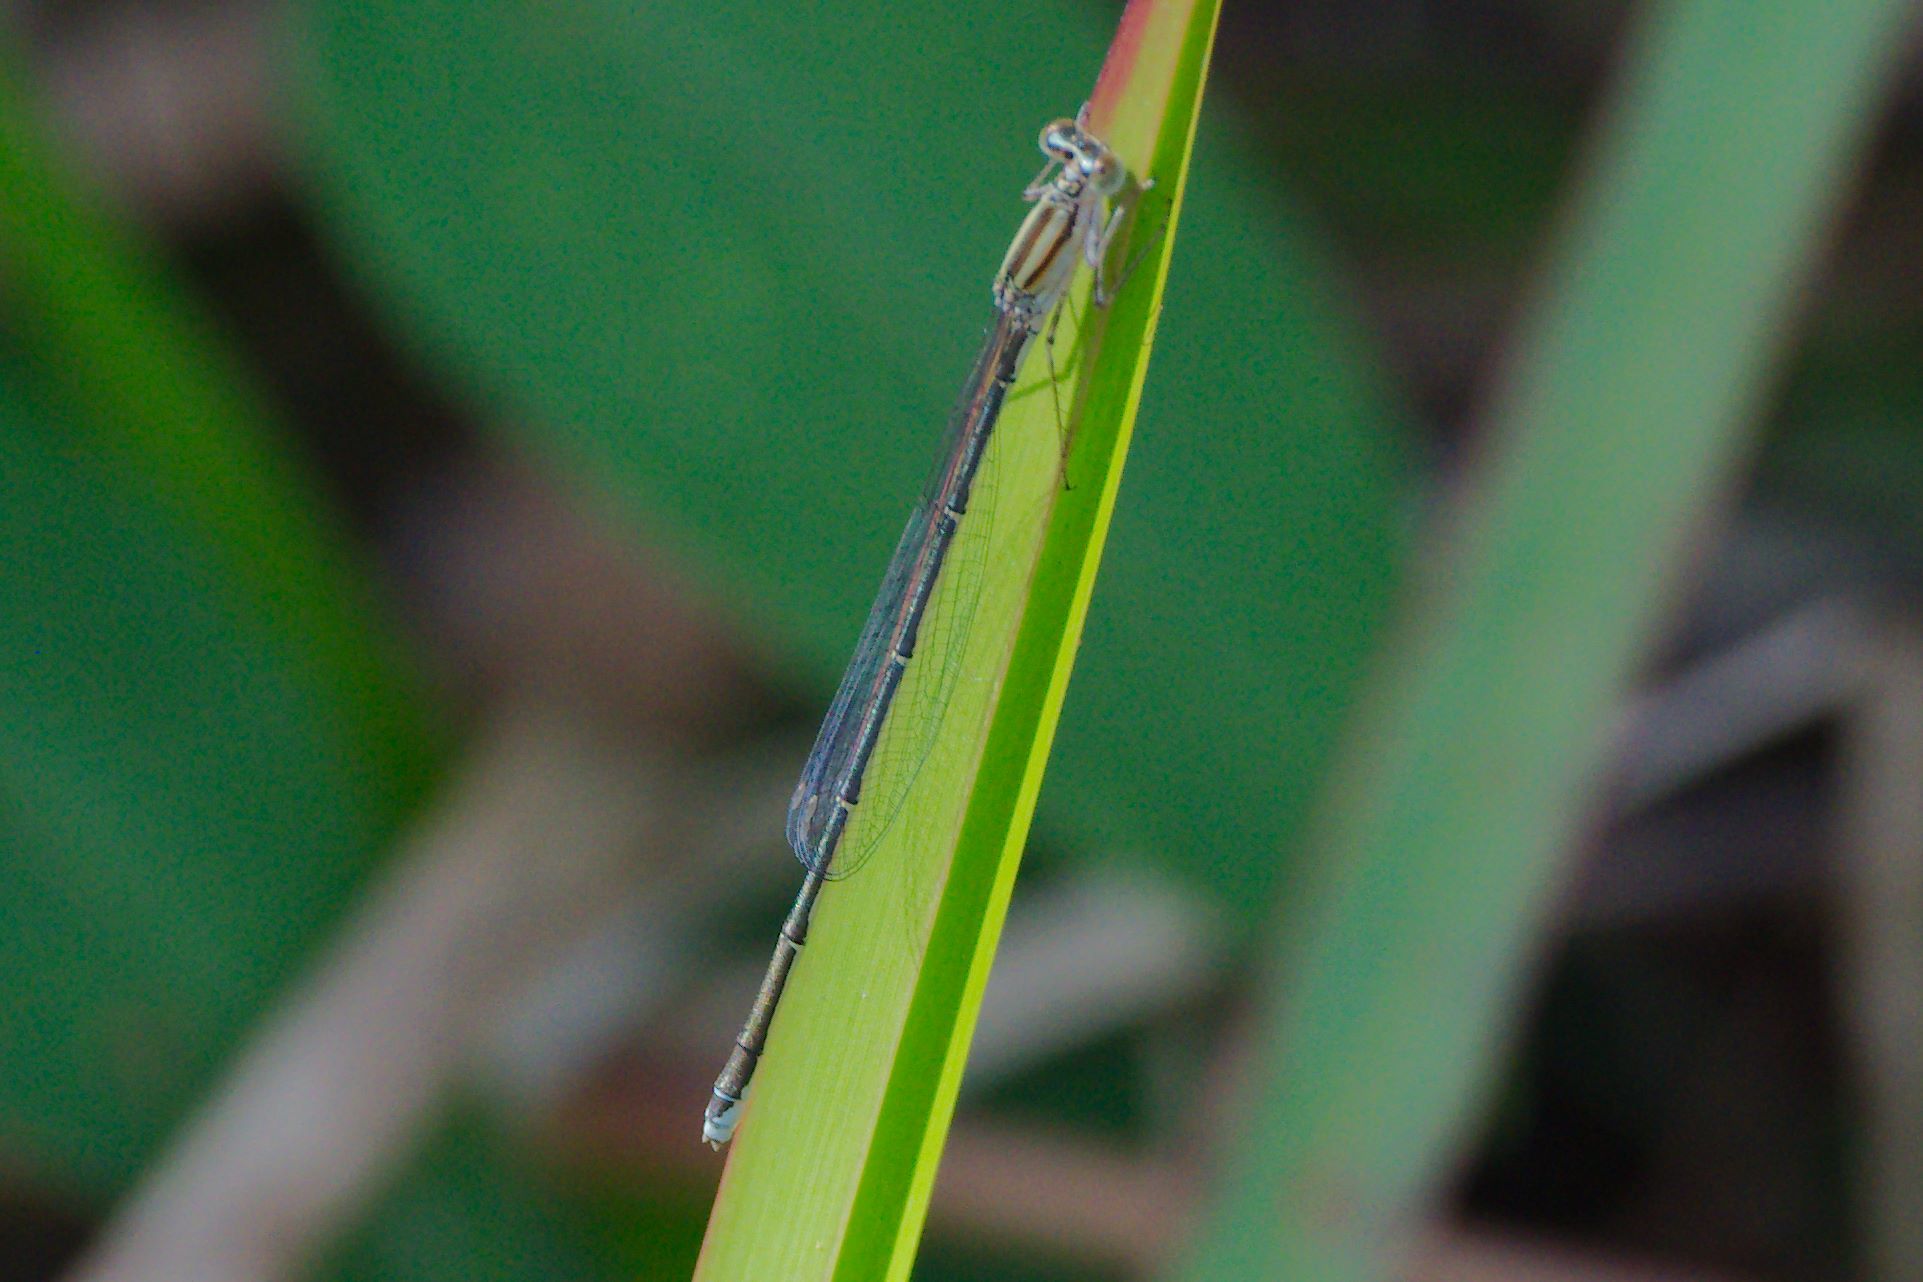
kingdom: Animalia
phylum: Arthropoda
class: Insecta
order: Odonata
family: Coenagrionidae
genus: Enallagma
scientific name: Enallagma vesperum
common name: Vesper bluet
